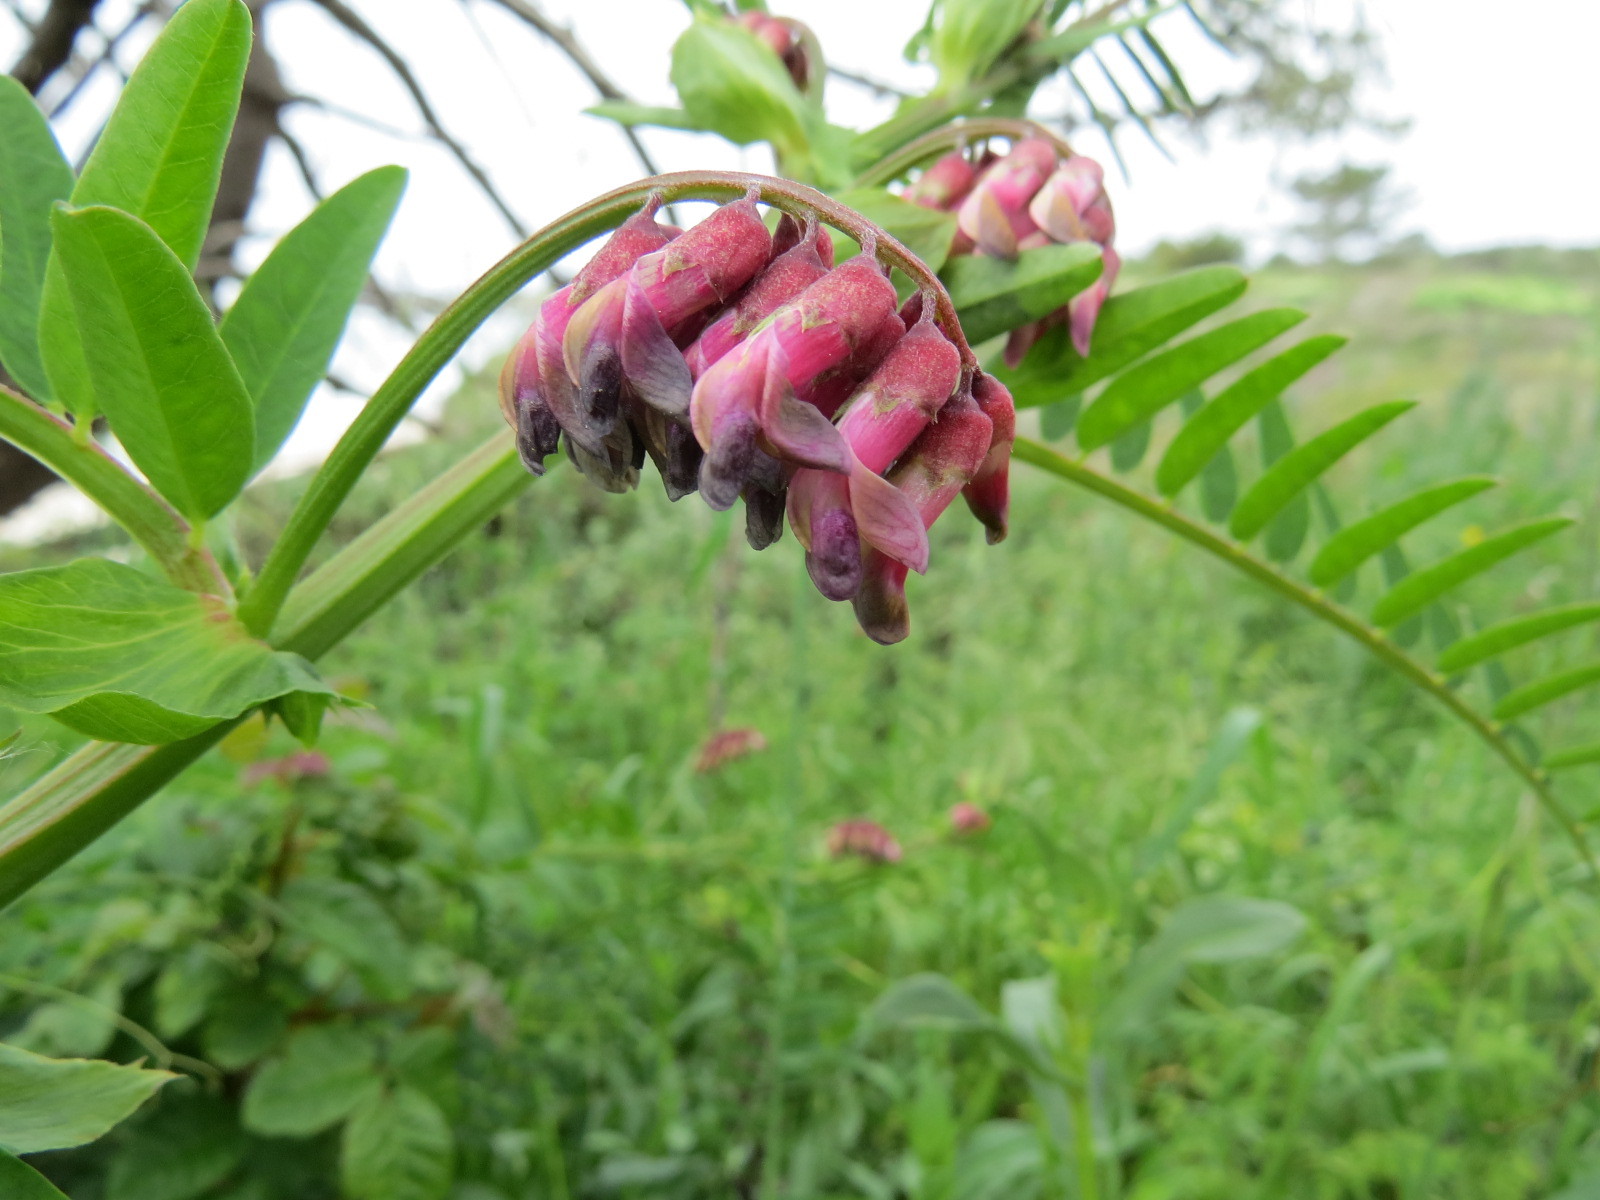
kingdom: Plantae
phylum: Tracheophyta
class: Magnoliopsida
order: Fabales
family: Fabaceae
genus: Vicia
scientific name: Vicia
